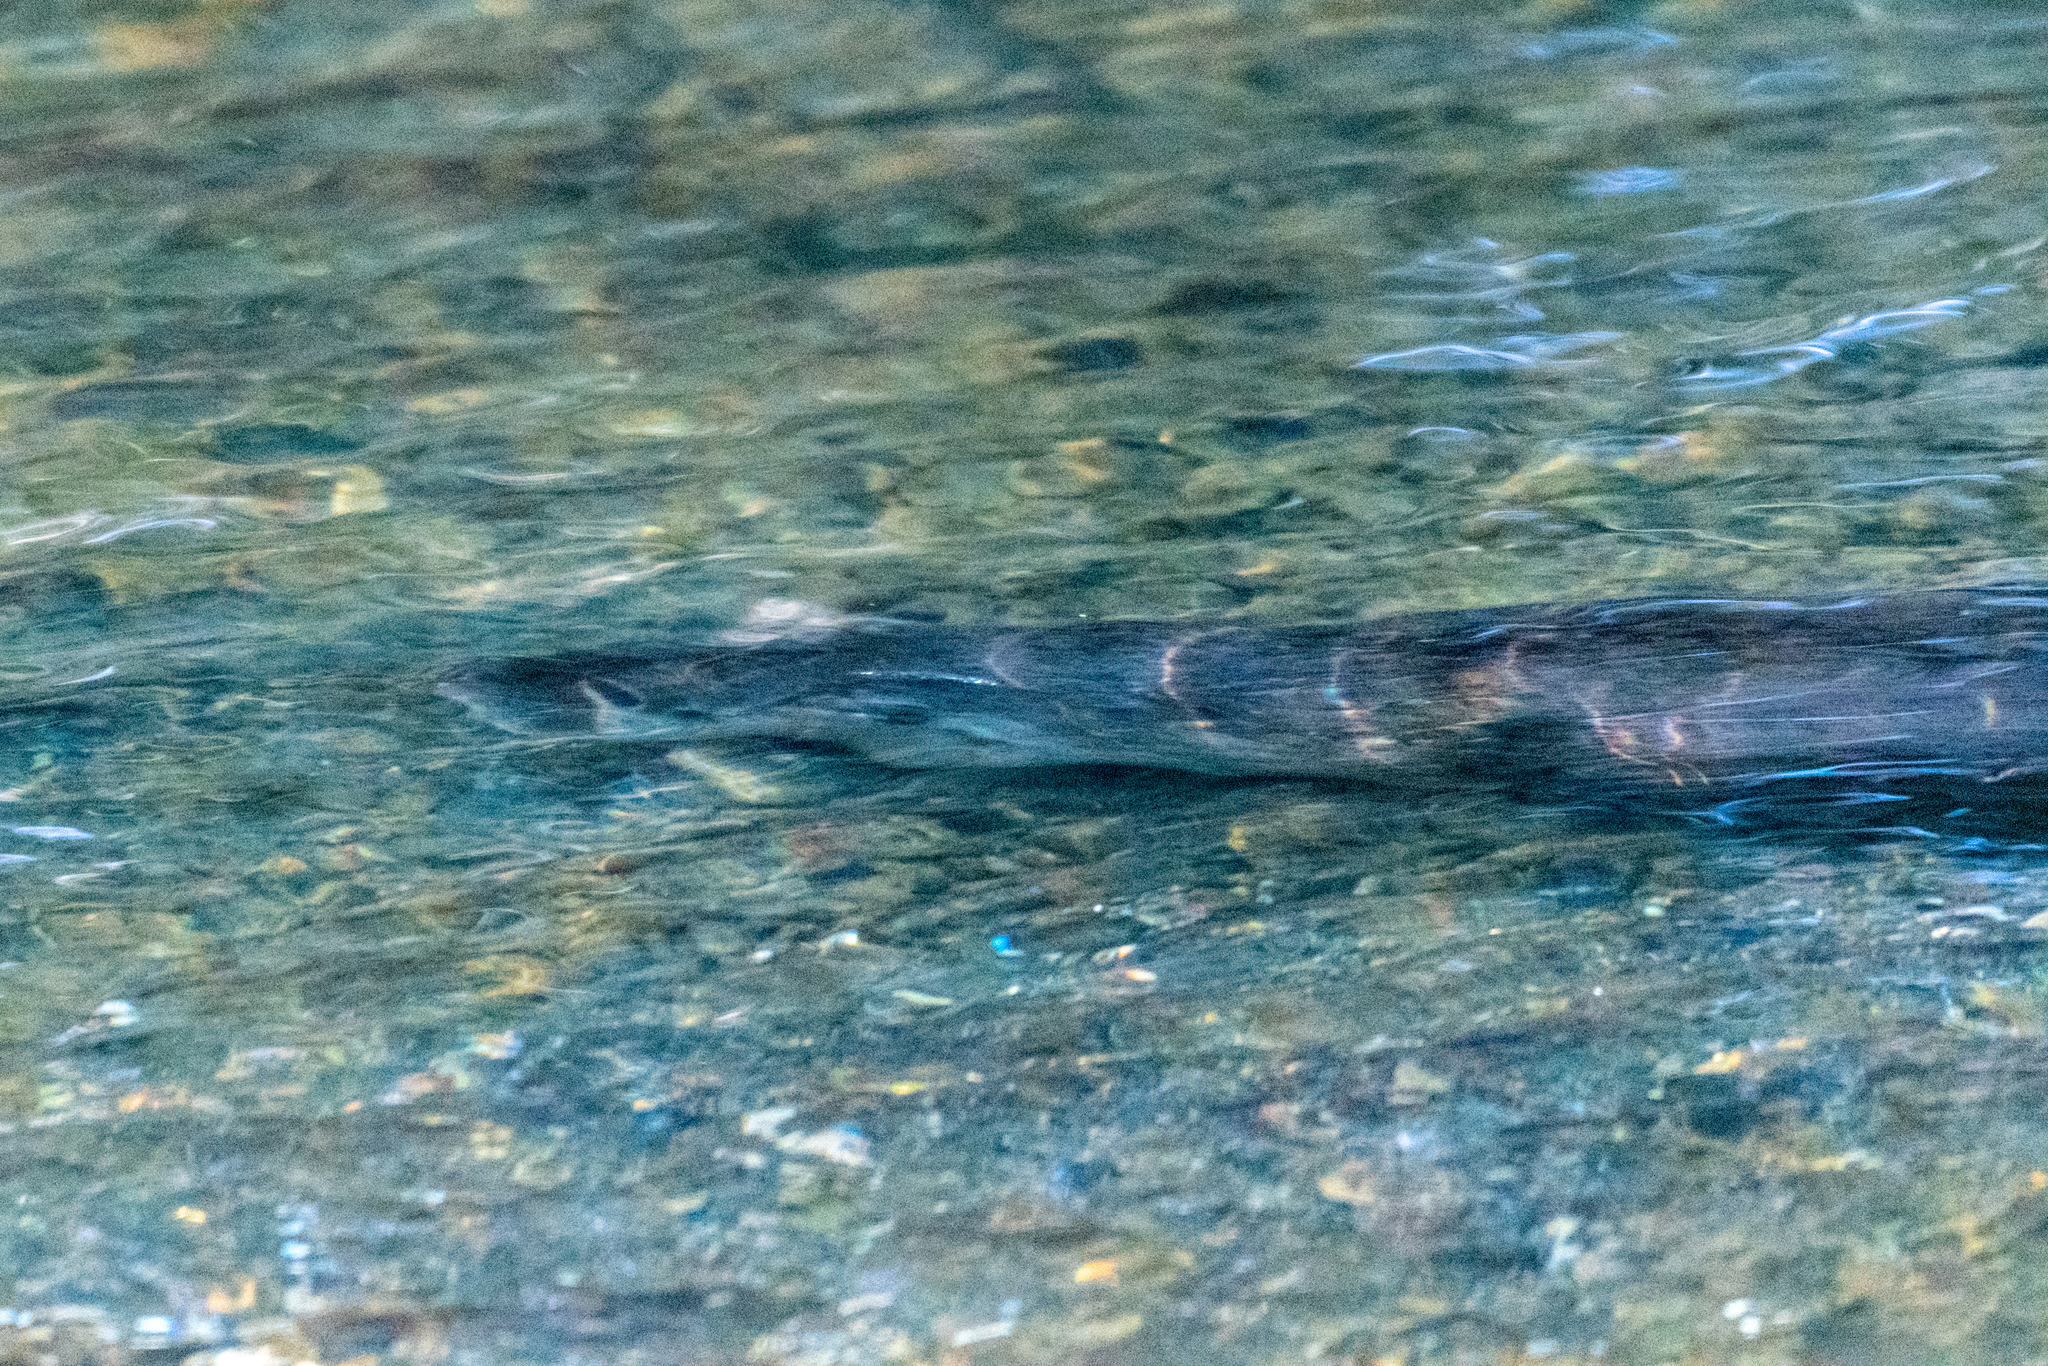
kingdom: Animalia
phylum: Chordata
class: Mammalia
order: Carnivora
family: Mustelidae
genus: Lontra
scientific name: Lontra canadensis
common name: North american river otter
